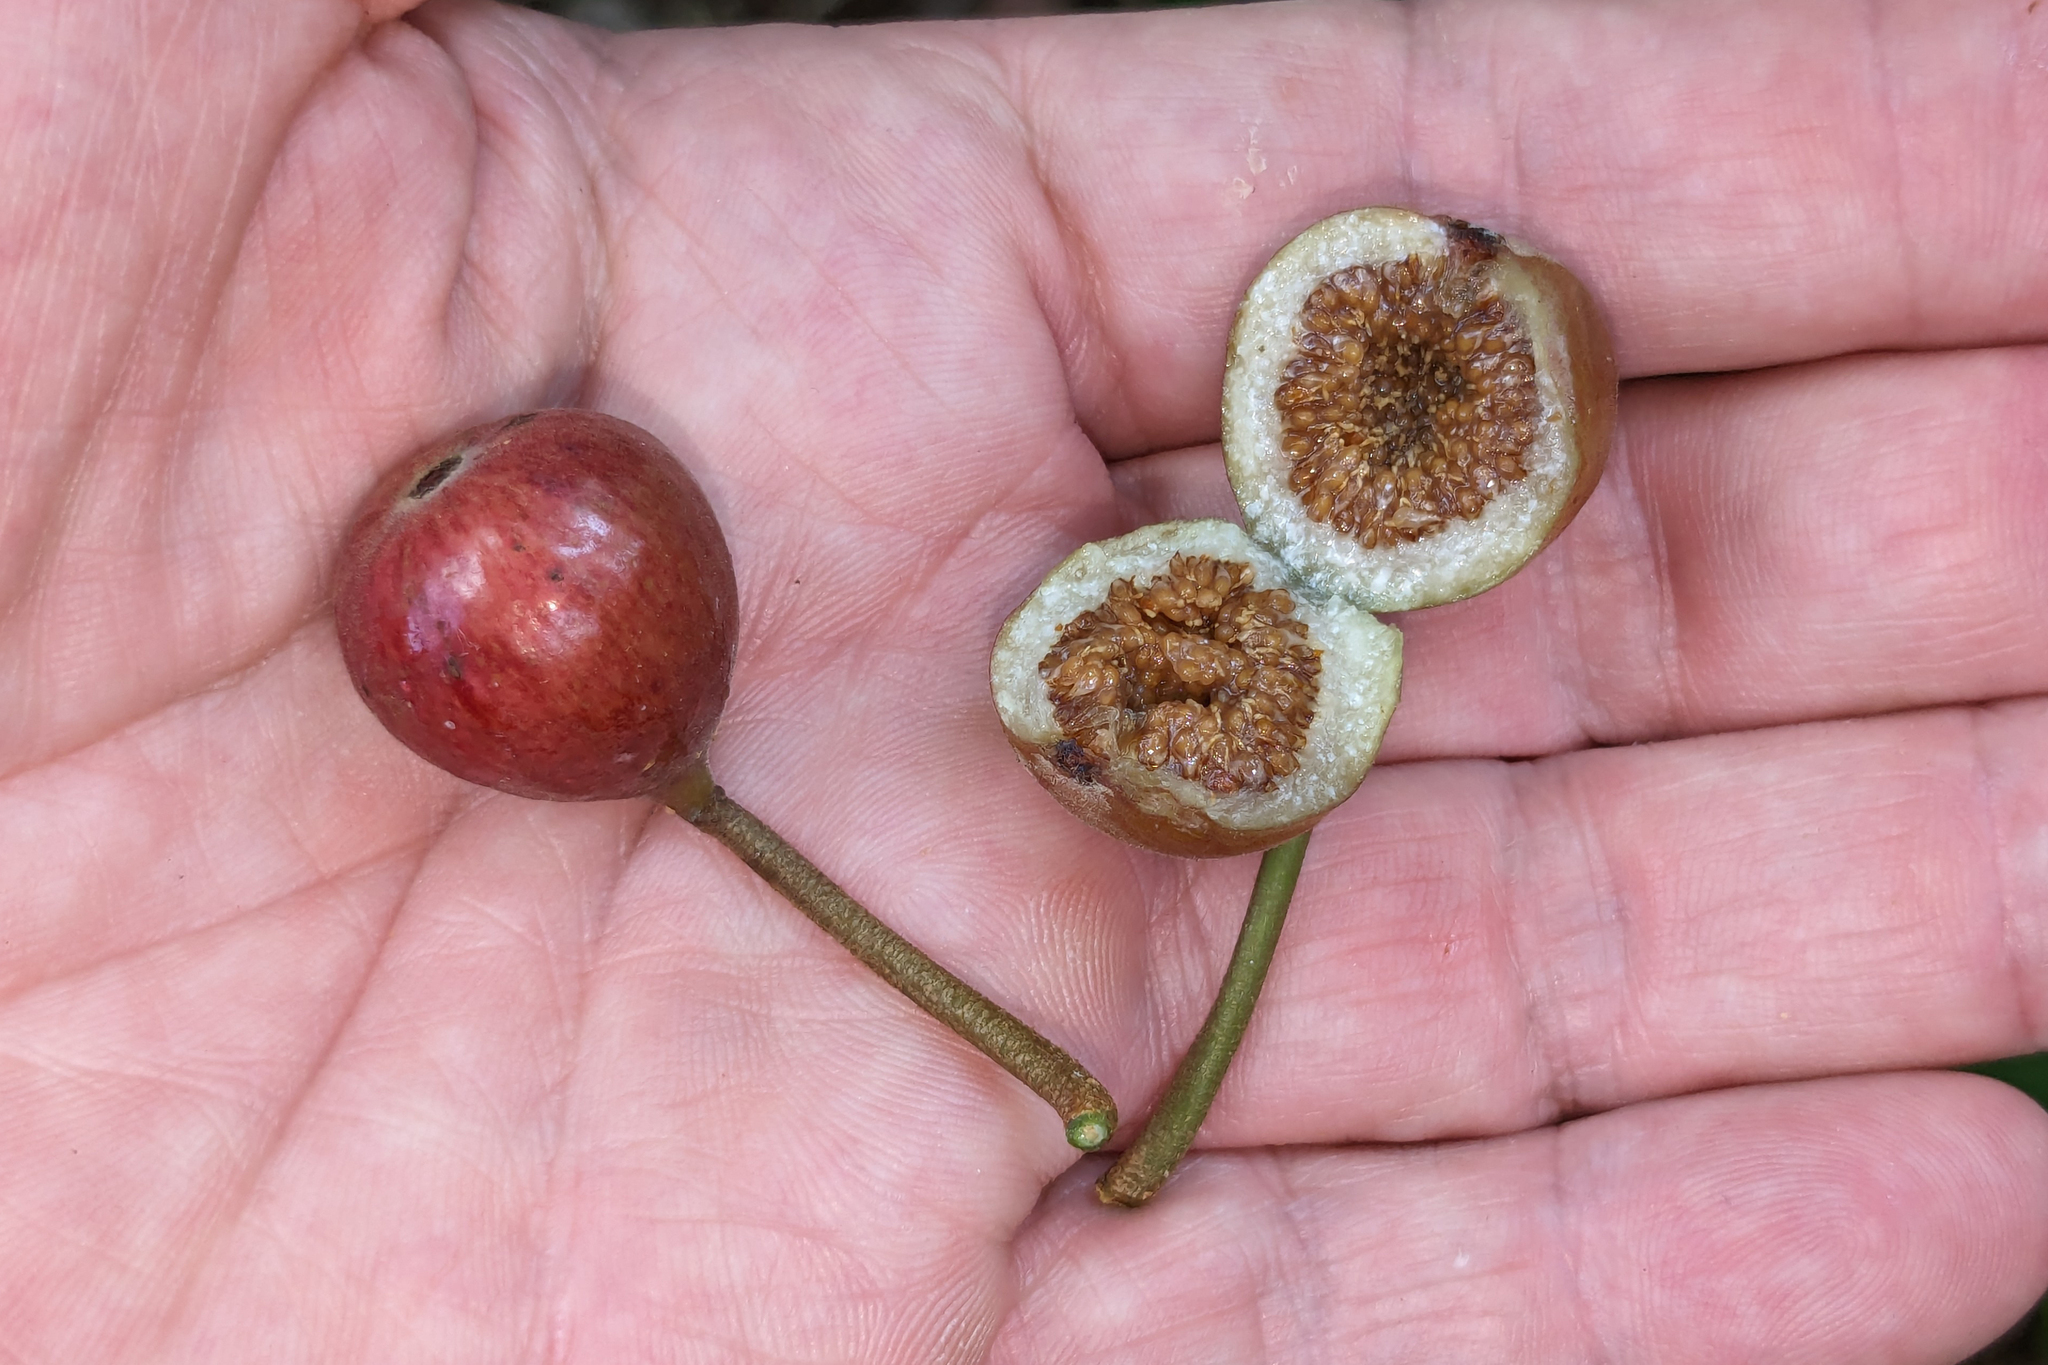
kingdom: Plantae
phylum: Tracheophyta
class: Magnoliopsida
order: Rosales
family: Moraceae
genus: Ficus
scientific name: Ficus variegata
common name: Variegated fig
